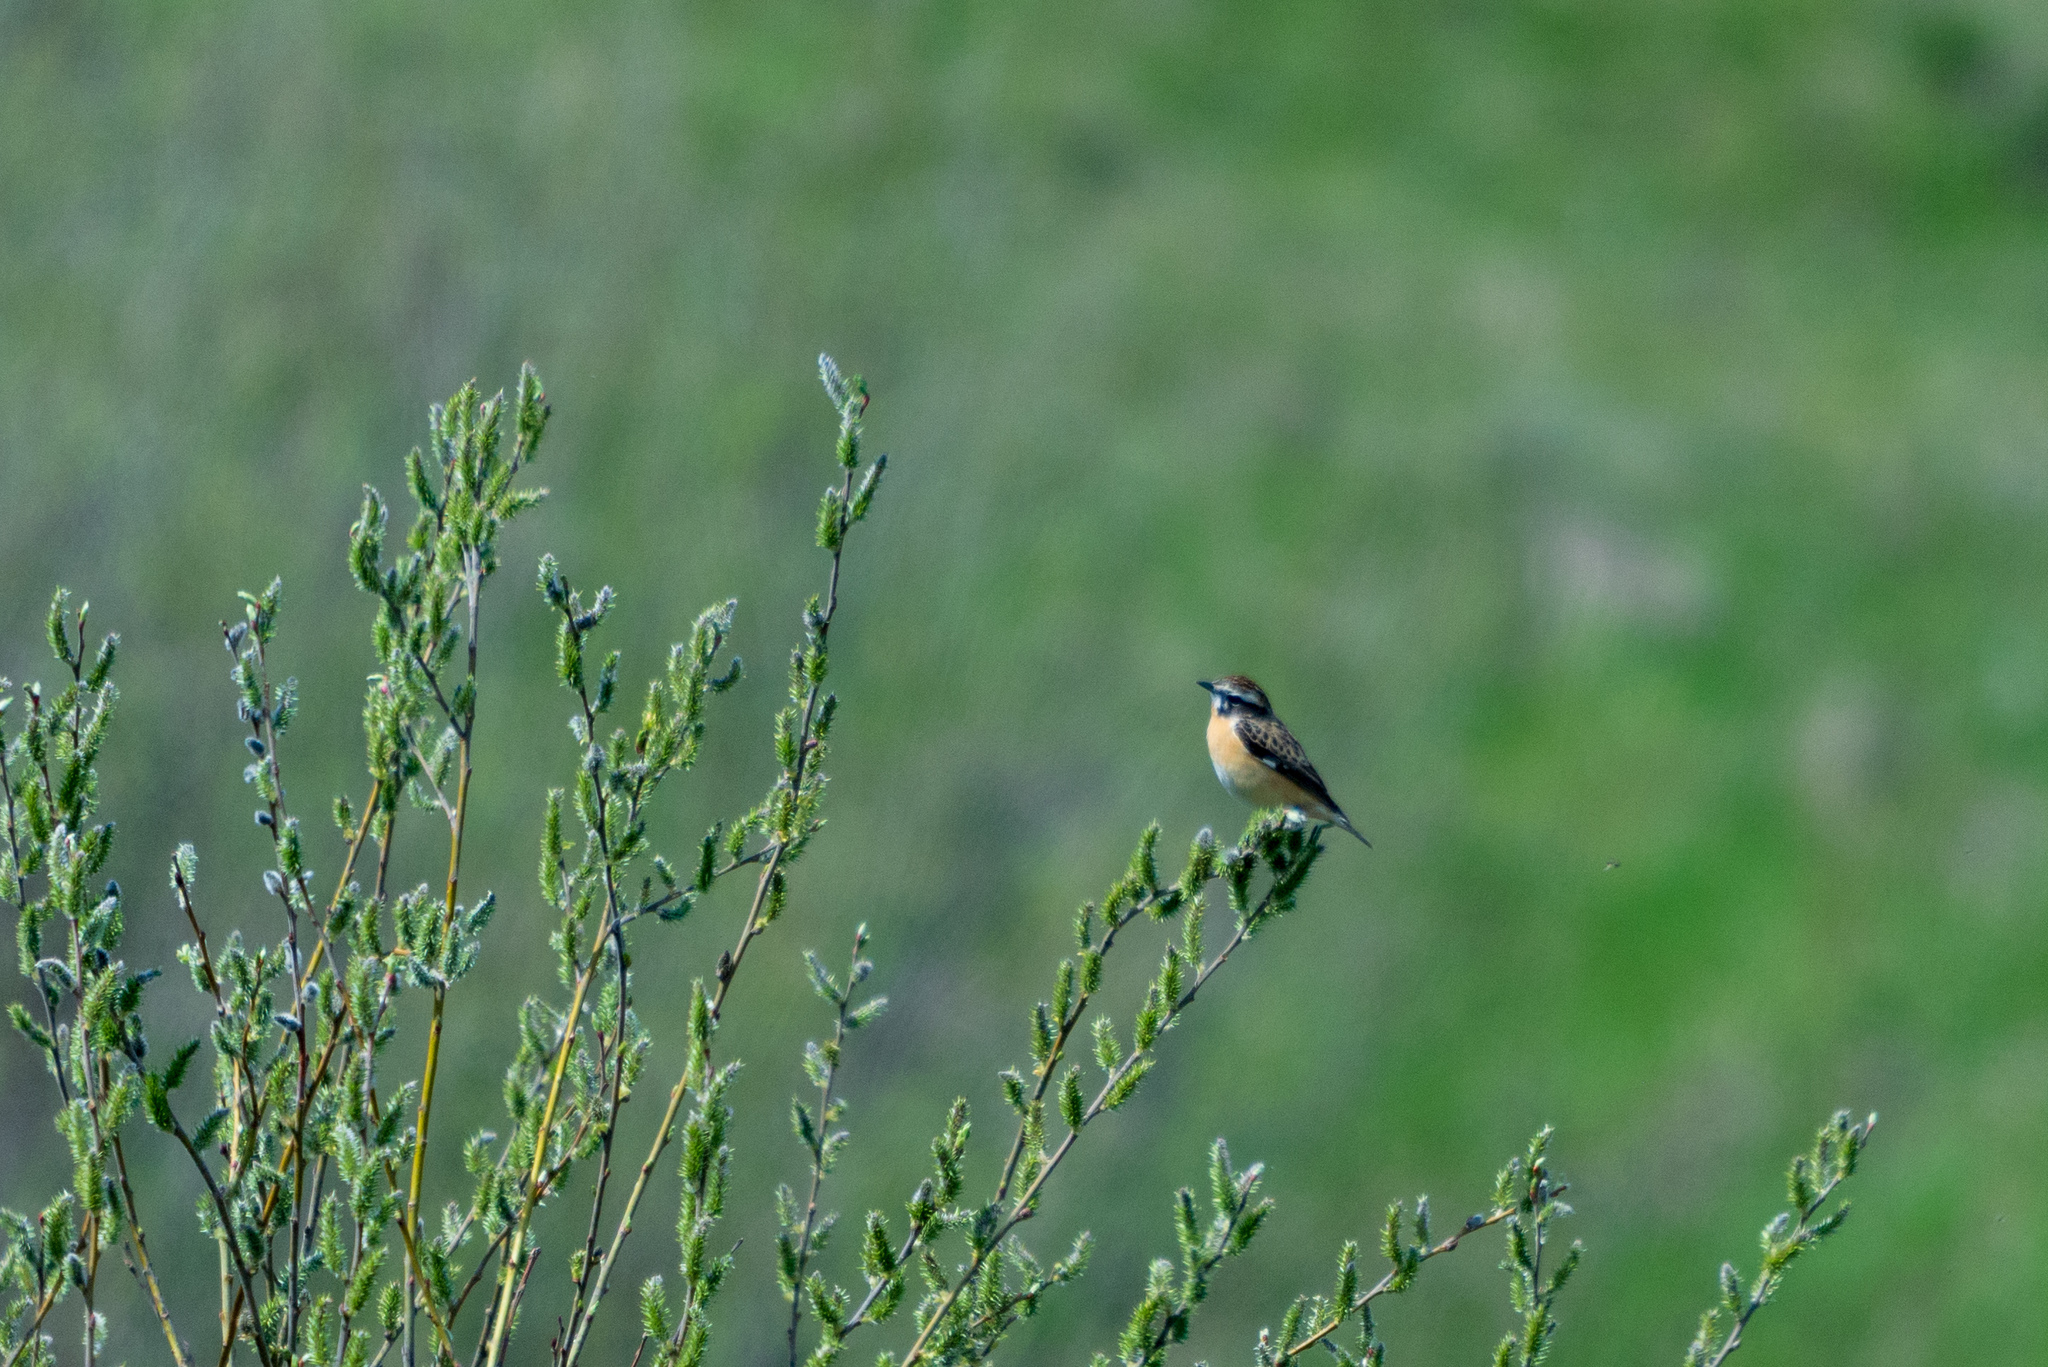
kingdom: Animalia
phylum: Chordata
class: Aves
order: Passeriformes
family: Muscicapidae
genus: Saxicola
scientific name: Saxicola rubetra
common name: Whinchat
